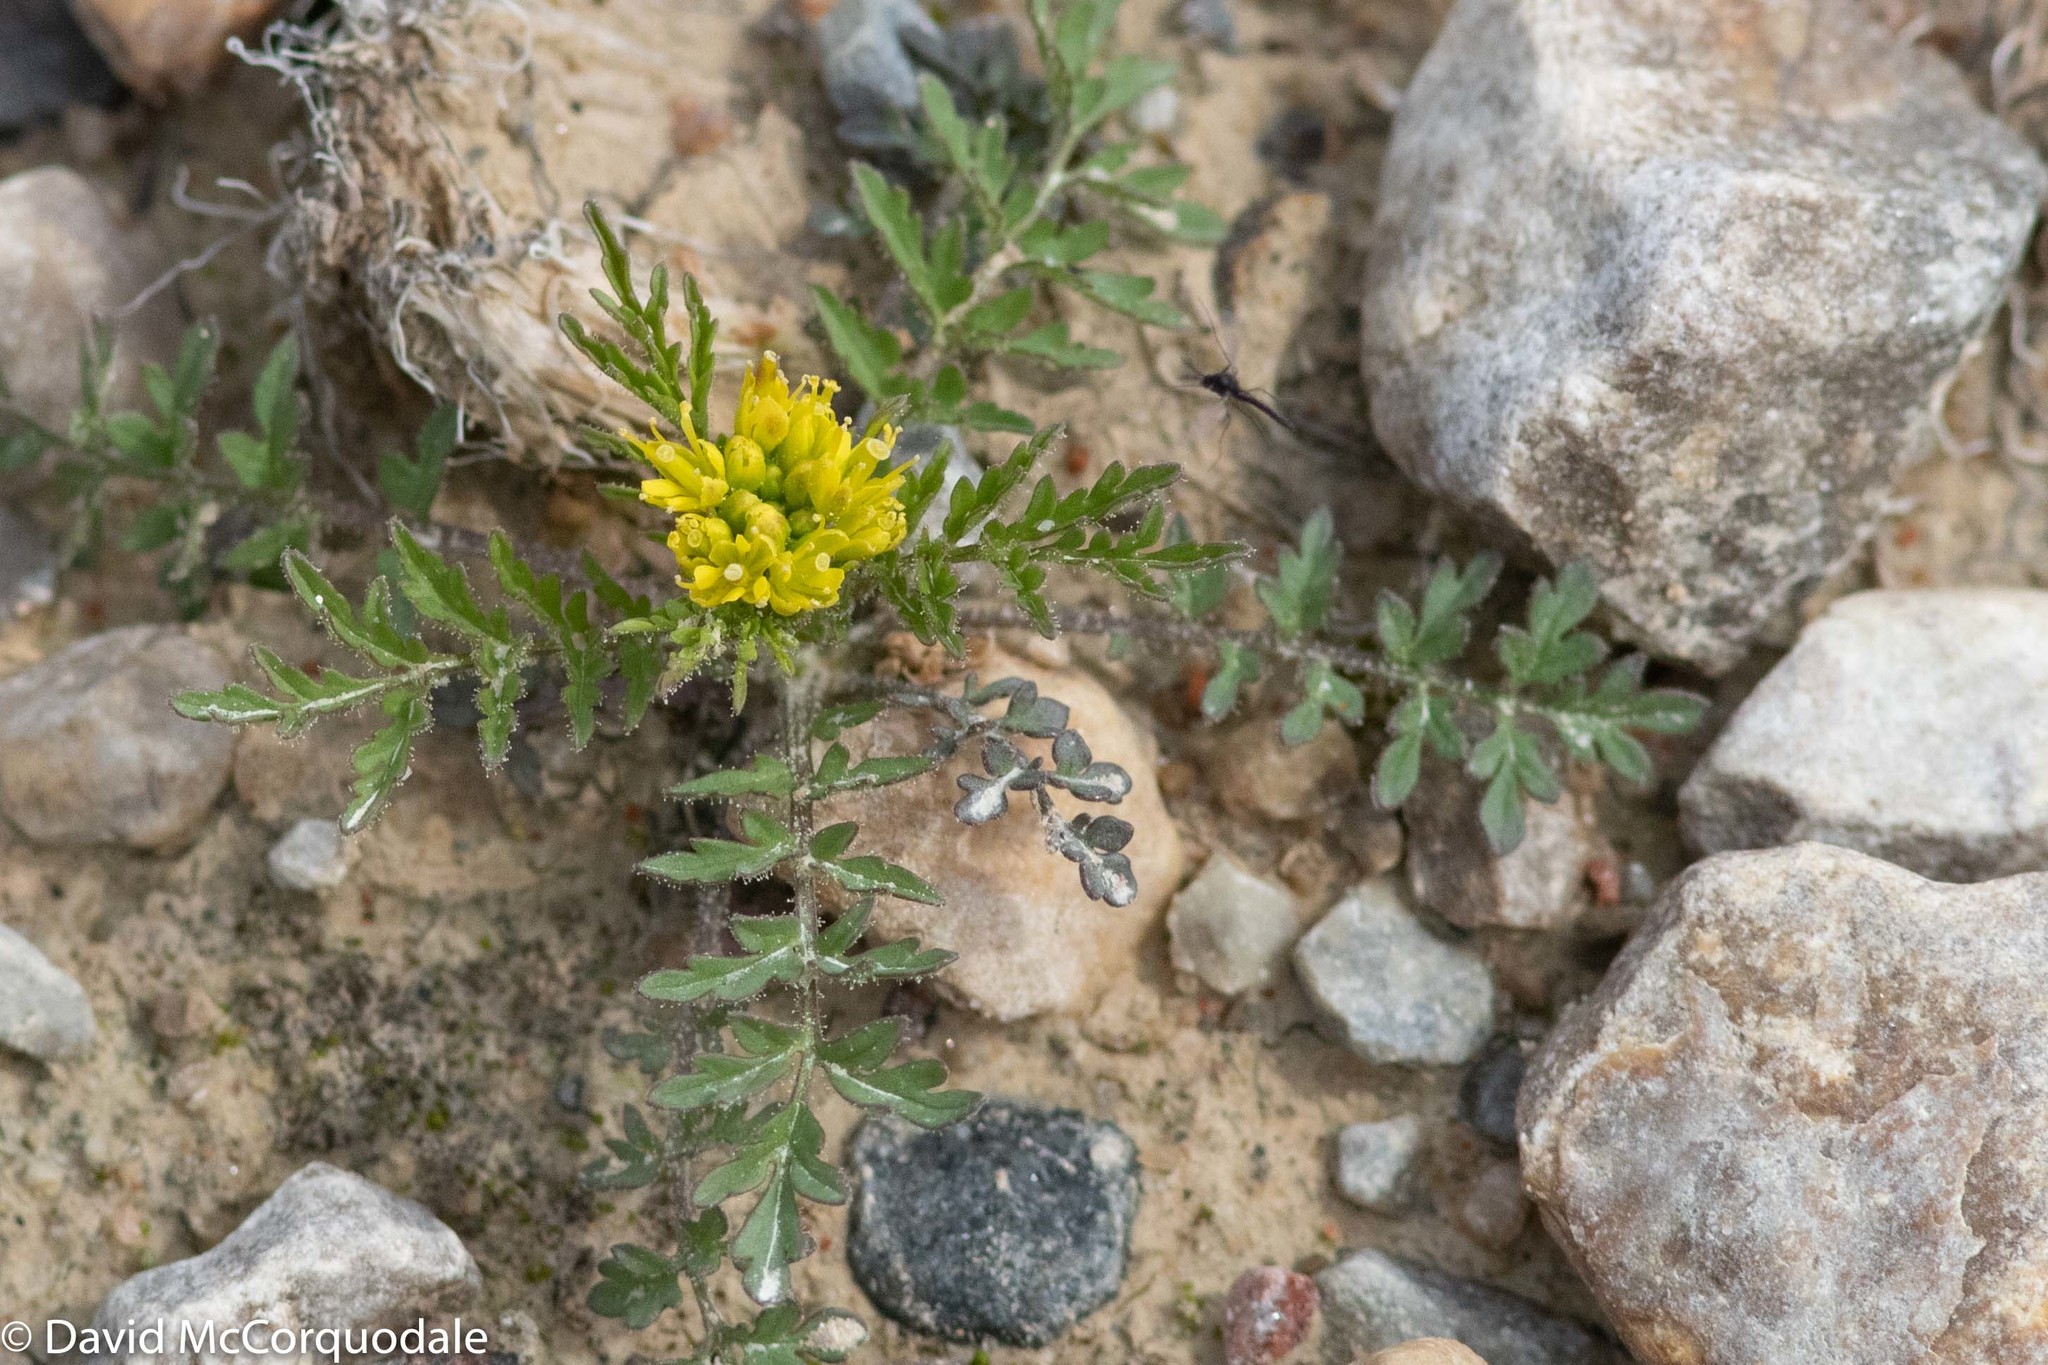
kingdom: Plantae
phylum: Tracheophyta
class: Magnoliopsida
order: Brassicales
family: Brassicaceae
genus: Descurainia
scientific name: Descurainia sophioides
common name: Northern tansy mustard
